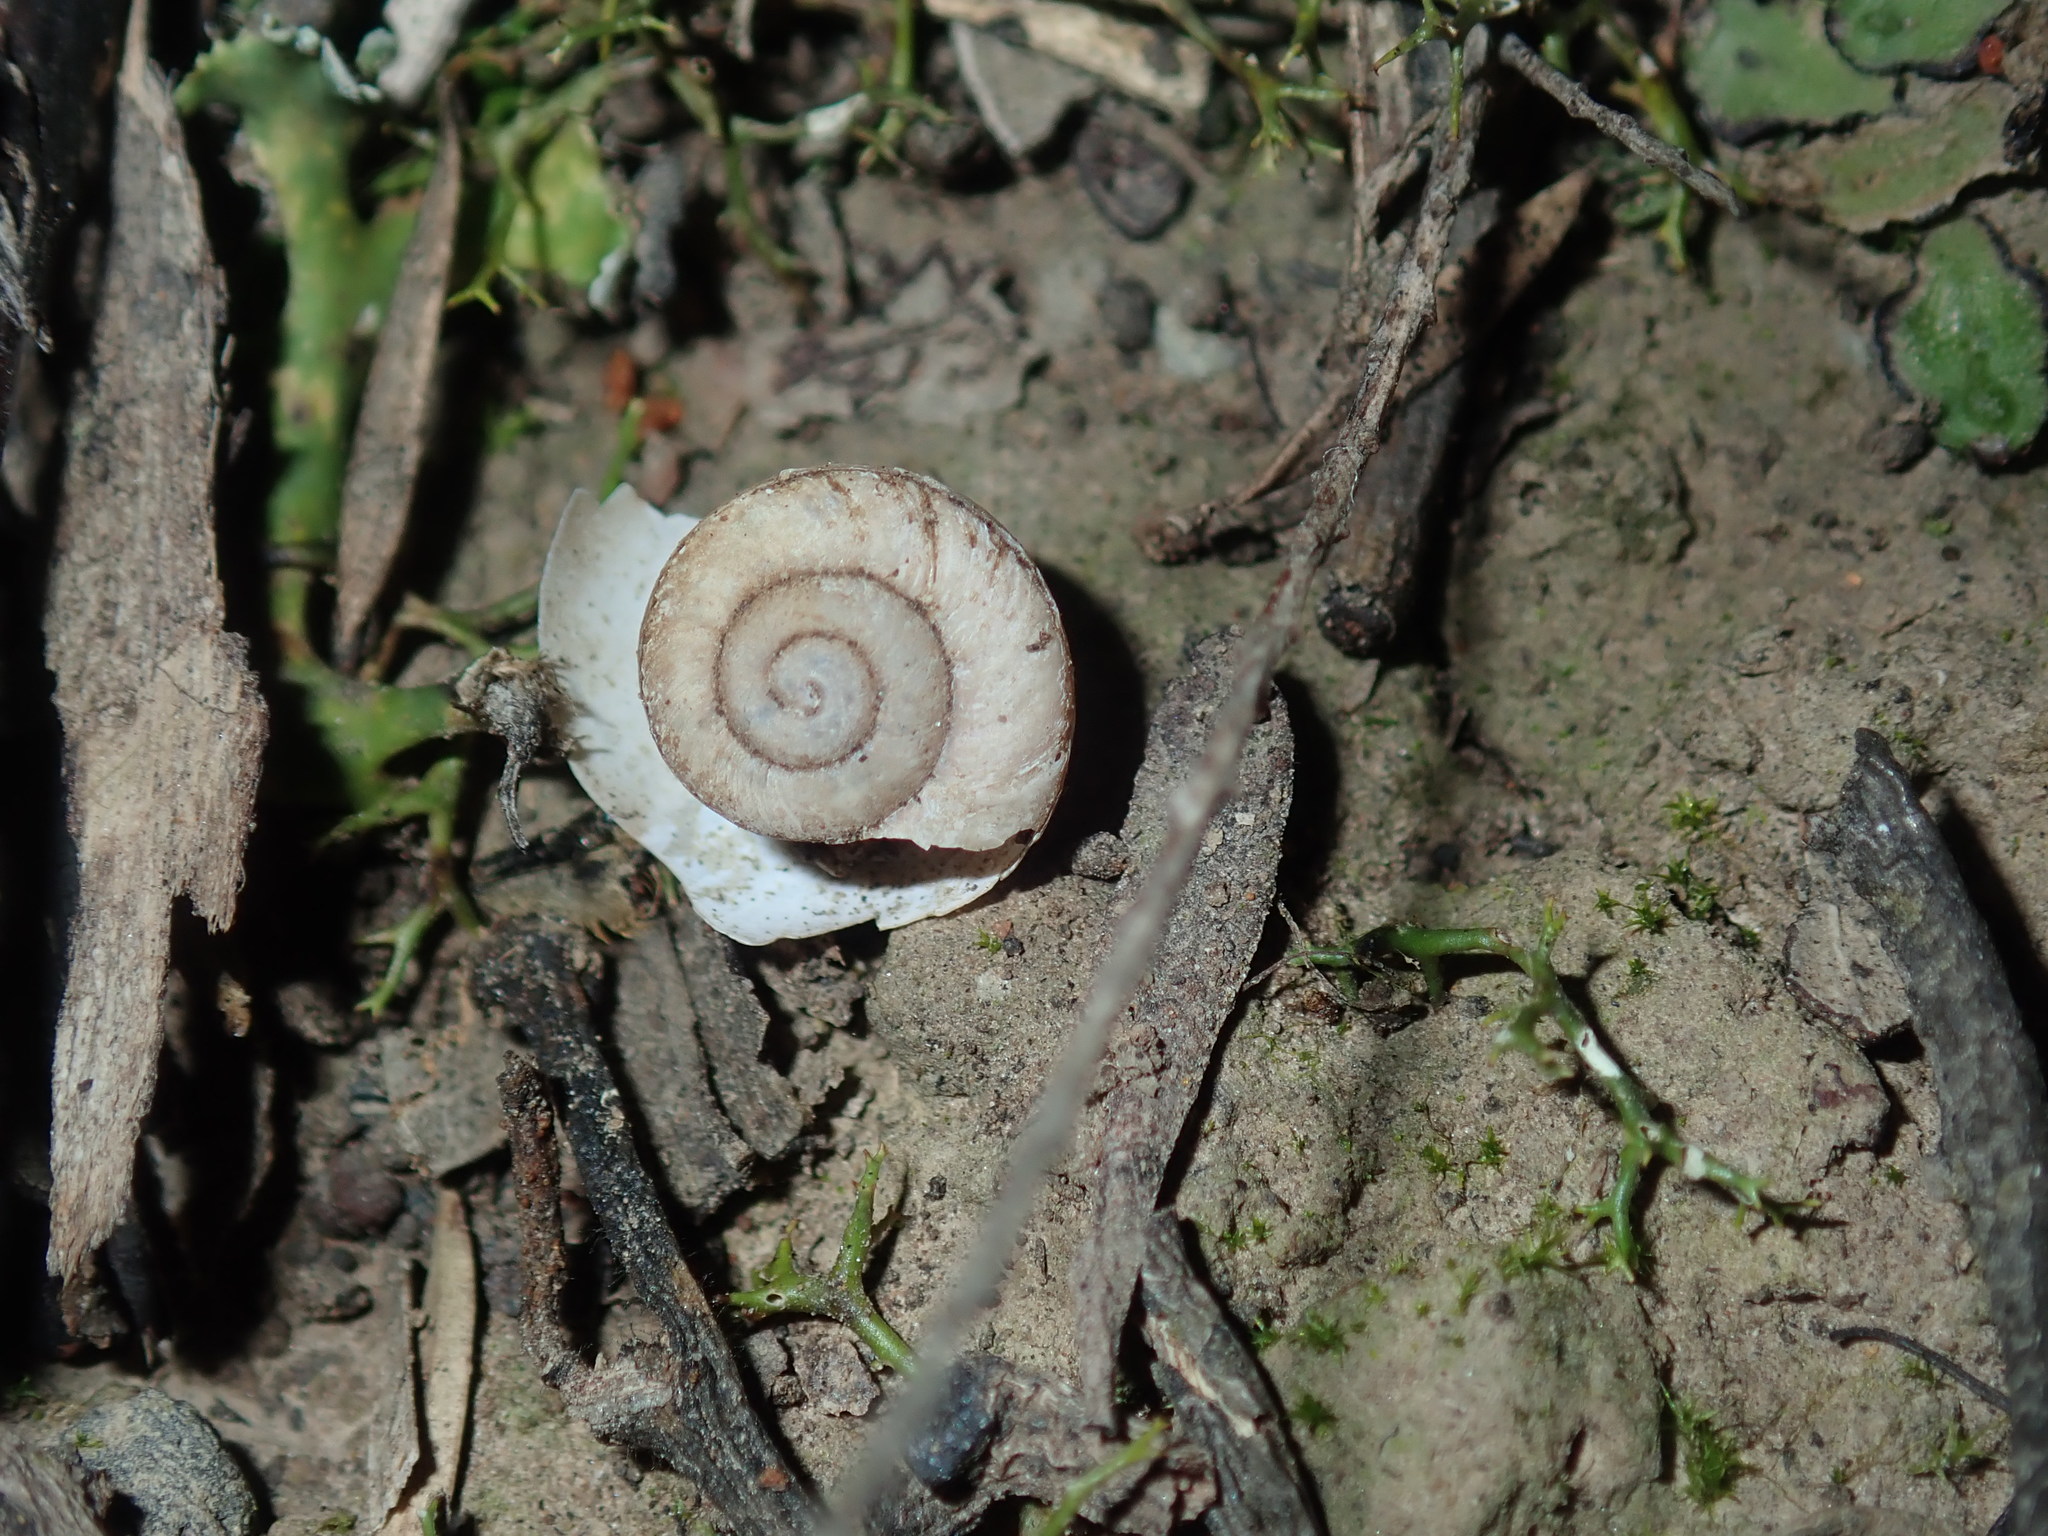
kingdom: Animalia
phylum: Mollusca
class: Gastropoda
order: Stylommatophora
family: Camaenidae
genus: Sauroconcha
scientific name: Sauroconcha sheai
